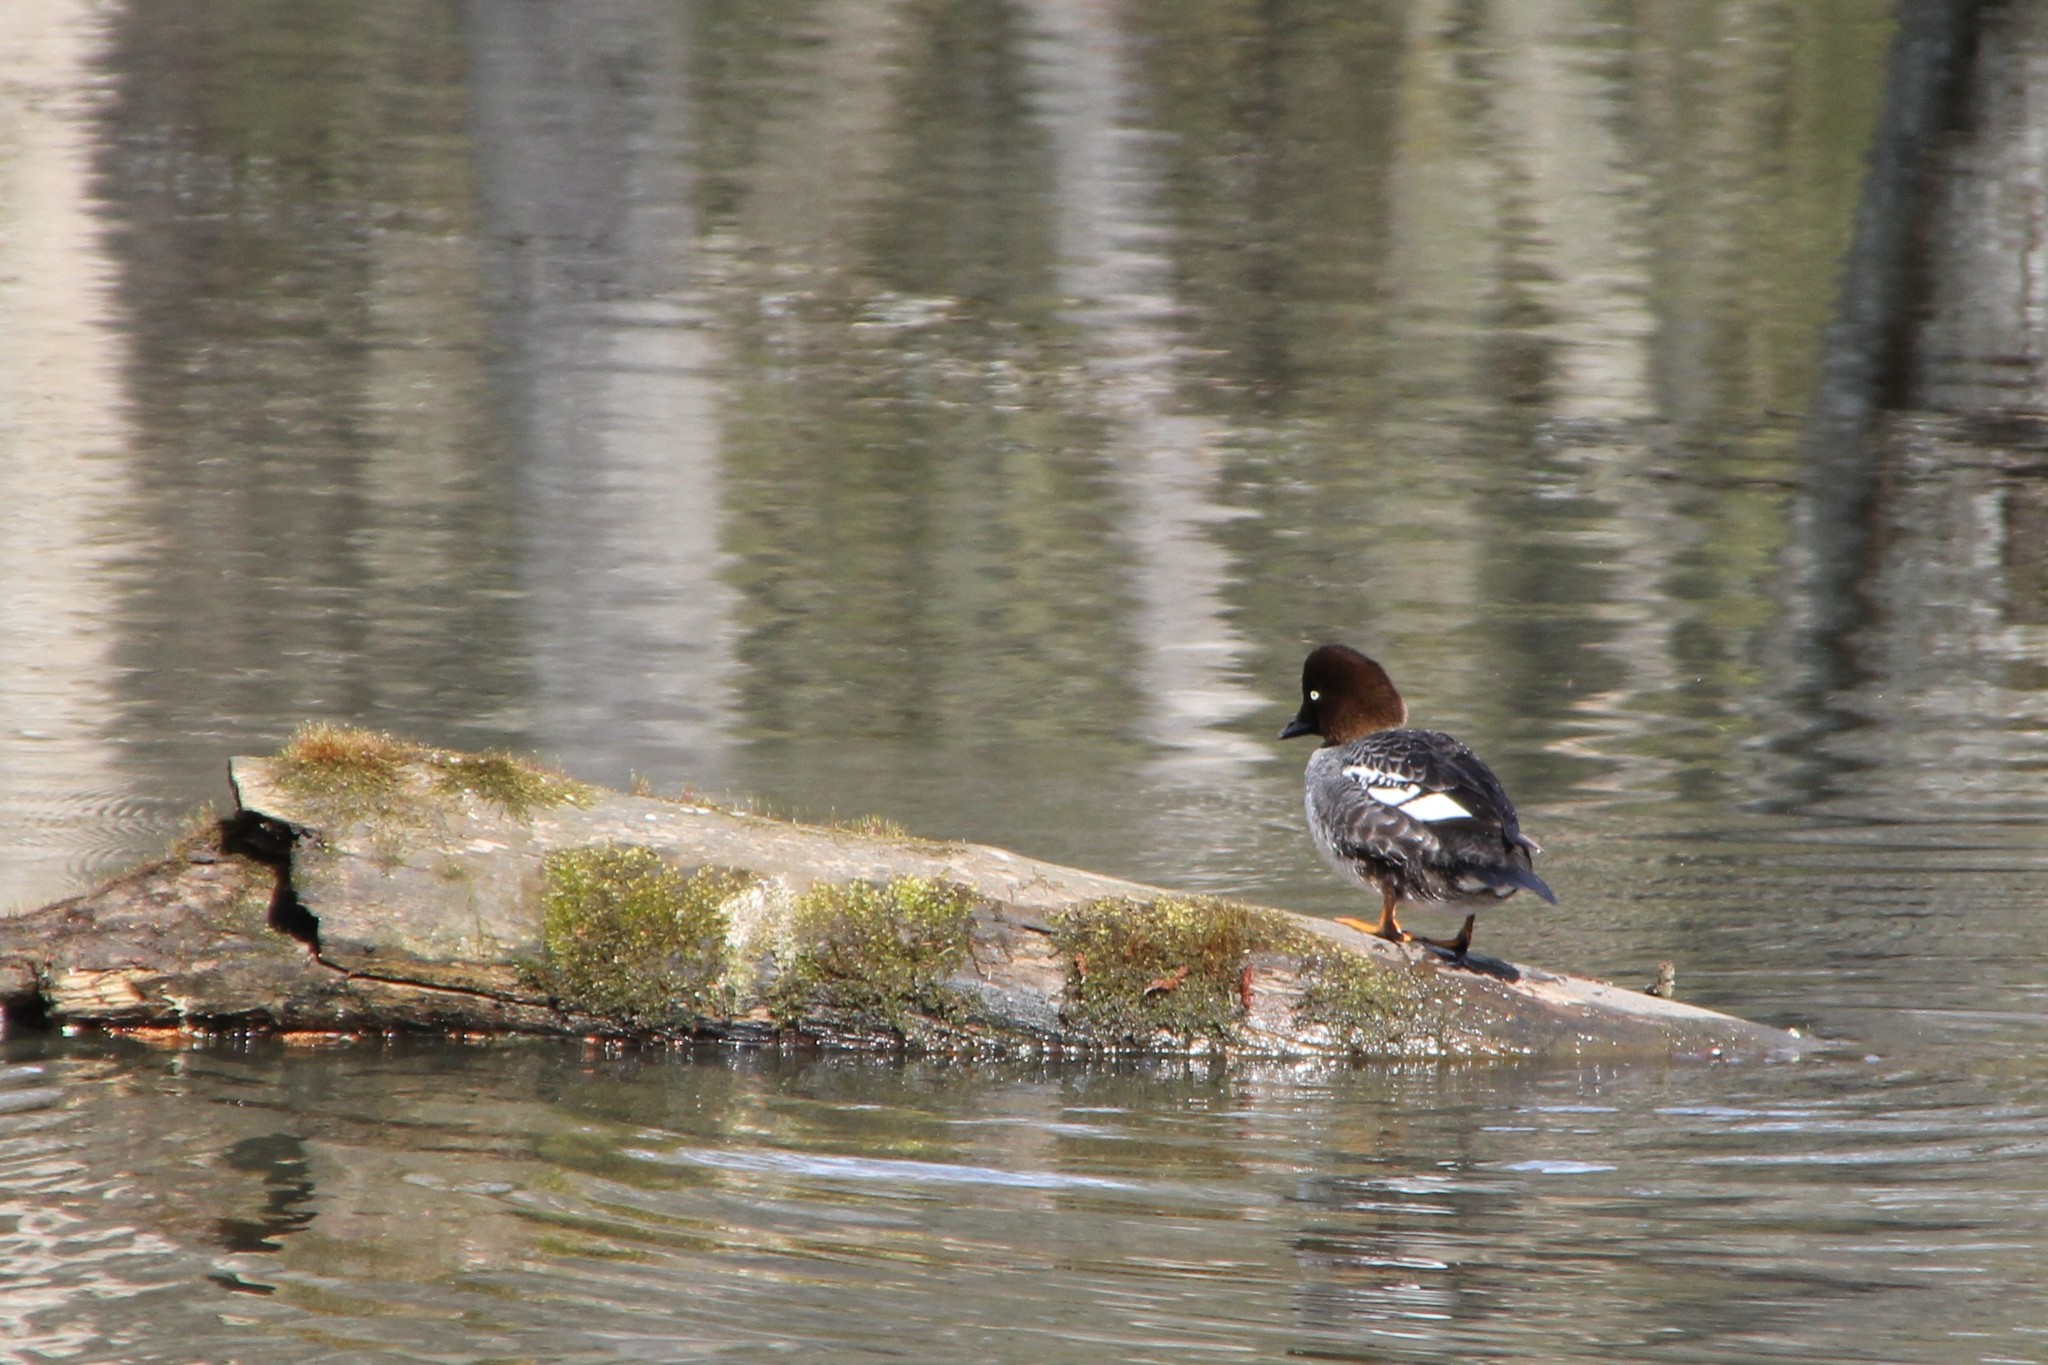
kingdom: Animalia
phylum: Chordata
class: Aves
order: Anseriformes
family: Anatidae
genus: Bucephala
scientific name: Bucephala clangula
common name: Common goldeneye
